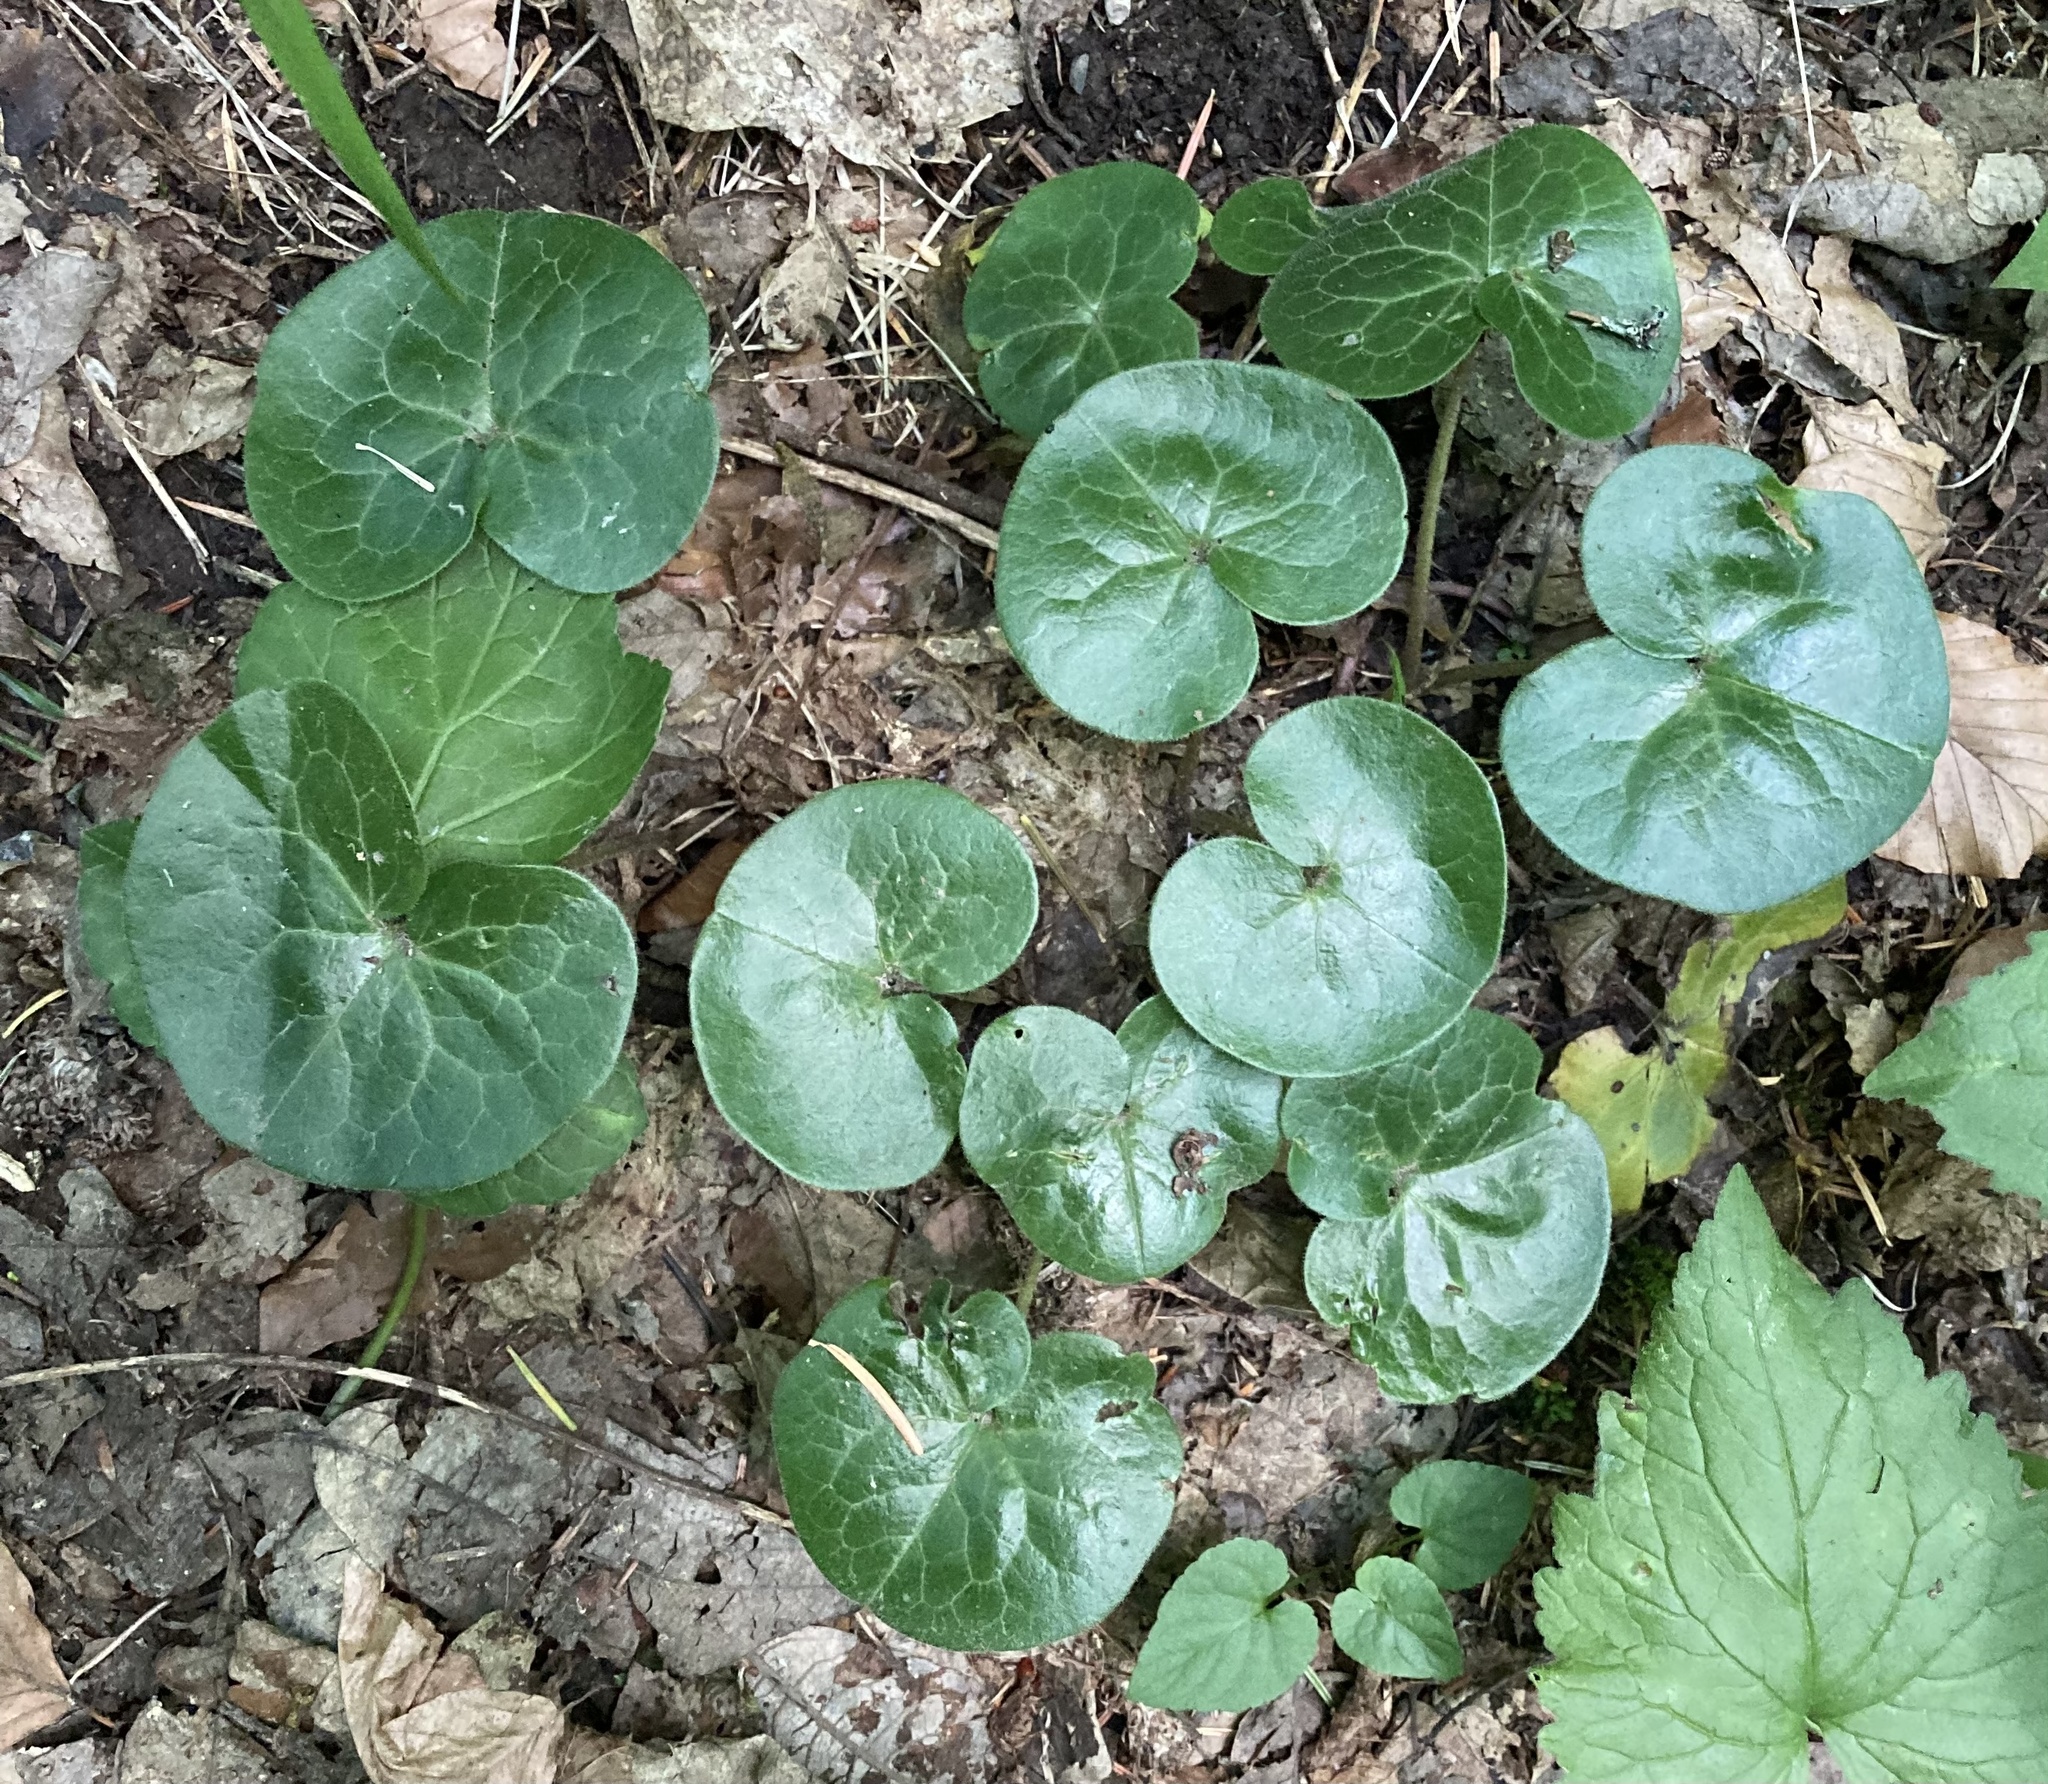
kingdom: Plantae
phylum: Tracheophyta
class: Magnoliopsida
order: Piperales
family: Aristolochiaceae
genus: Asarum
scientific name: Asarum europaeum
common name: Asarabacca
